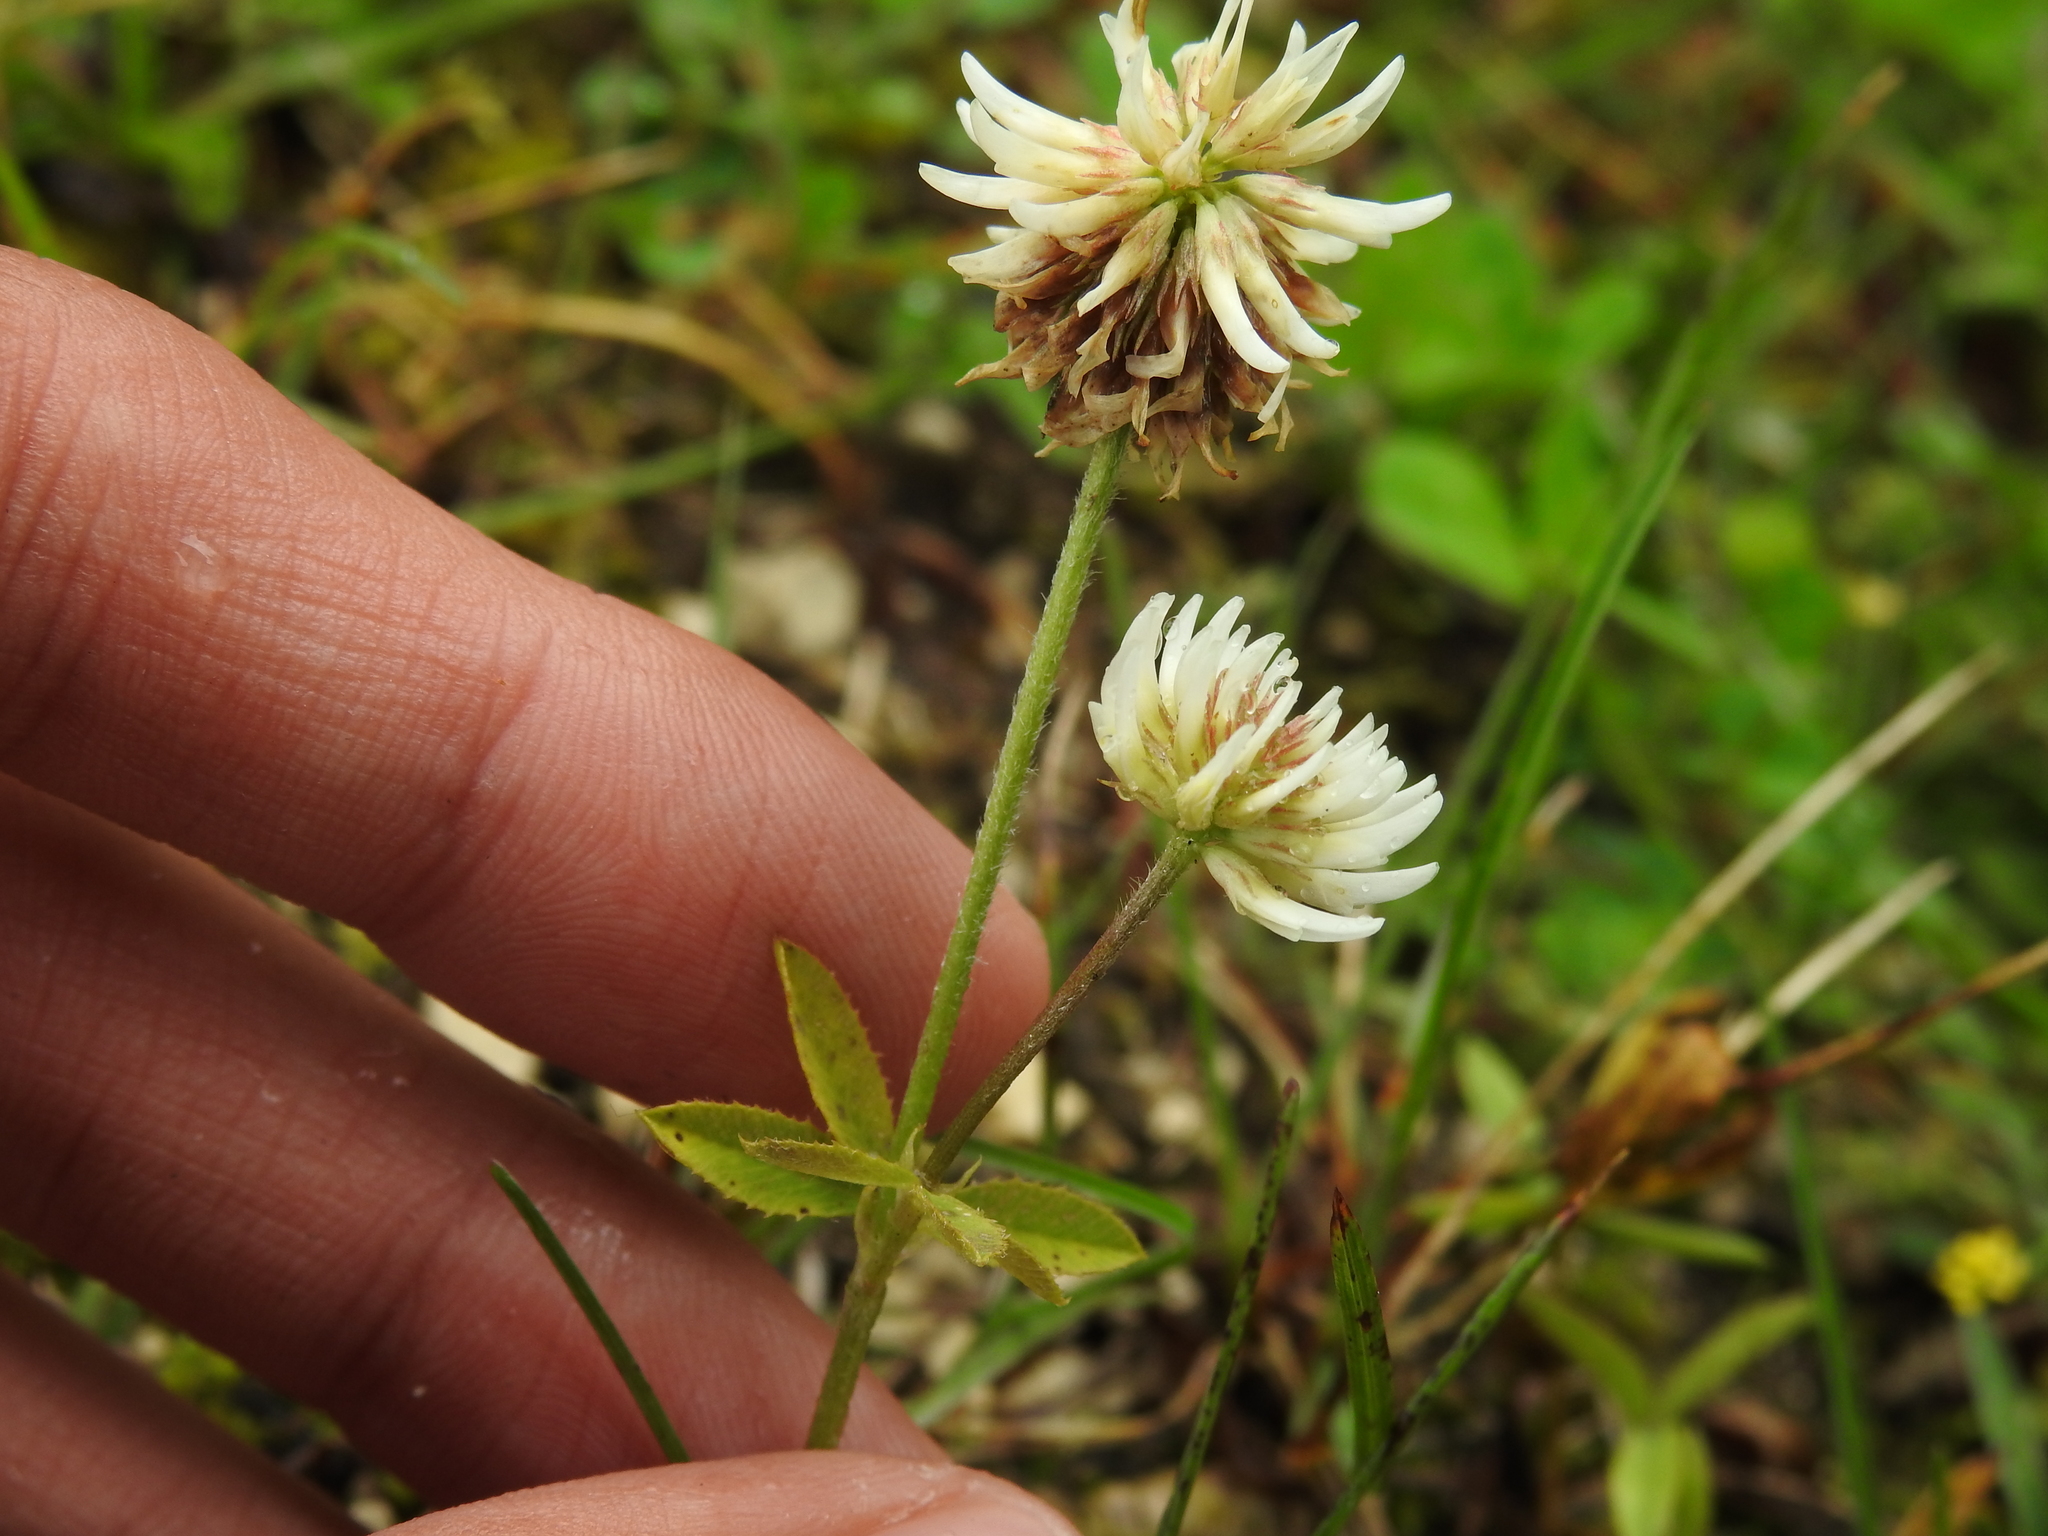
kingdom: Plantae
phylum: Tracheophyta
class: Magnoliopsida
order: Fabales
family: Fabaceae
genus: Trifolium
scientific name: Trifolium montanum
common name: Mountain clover
